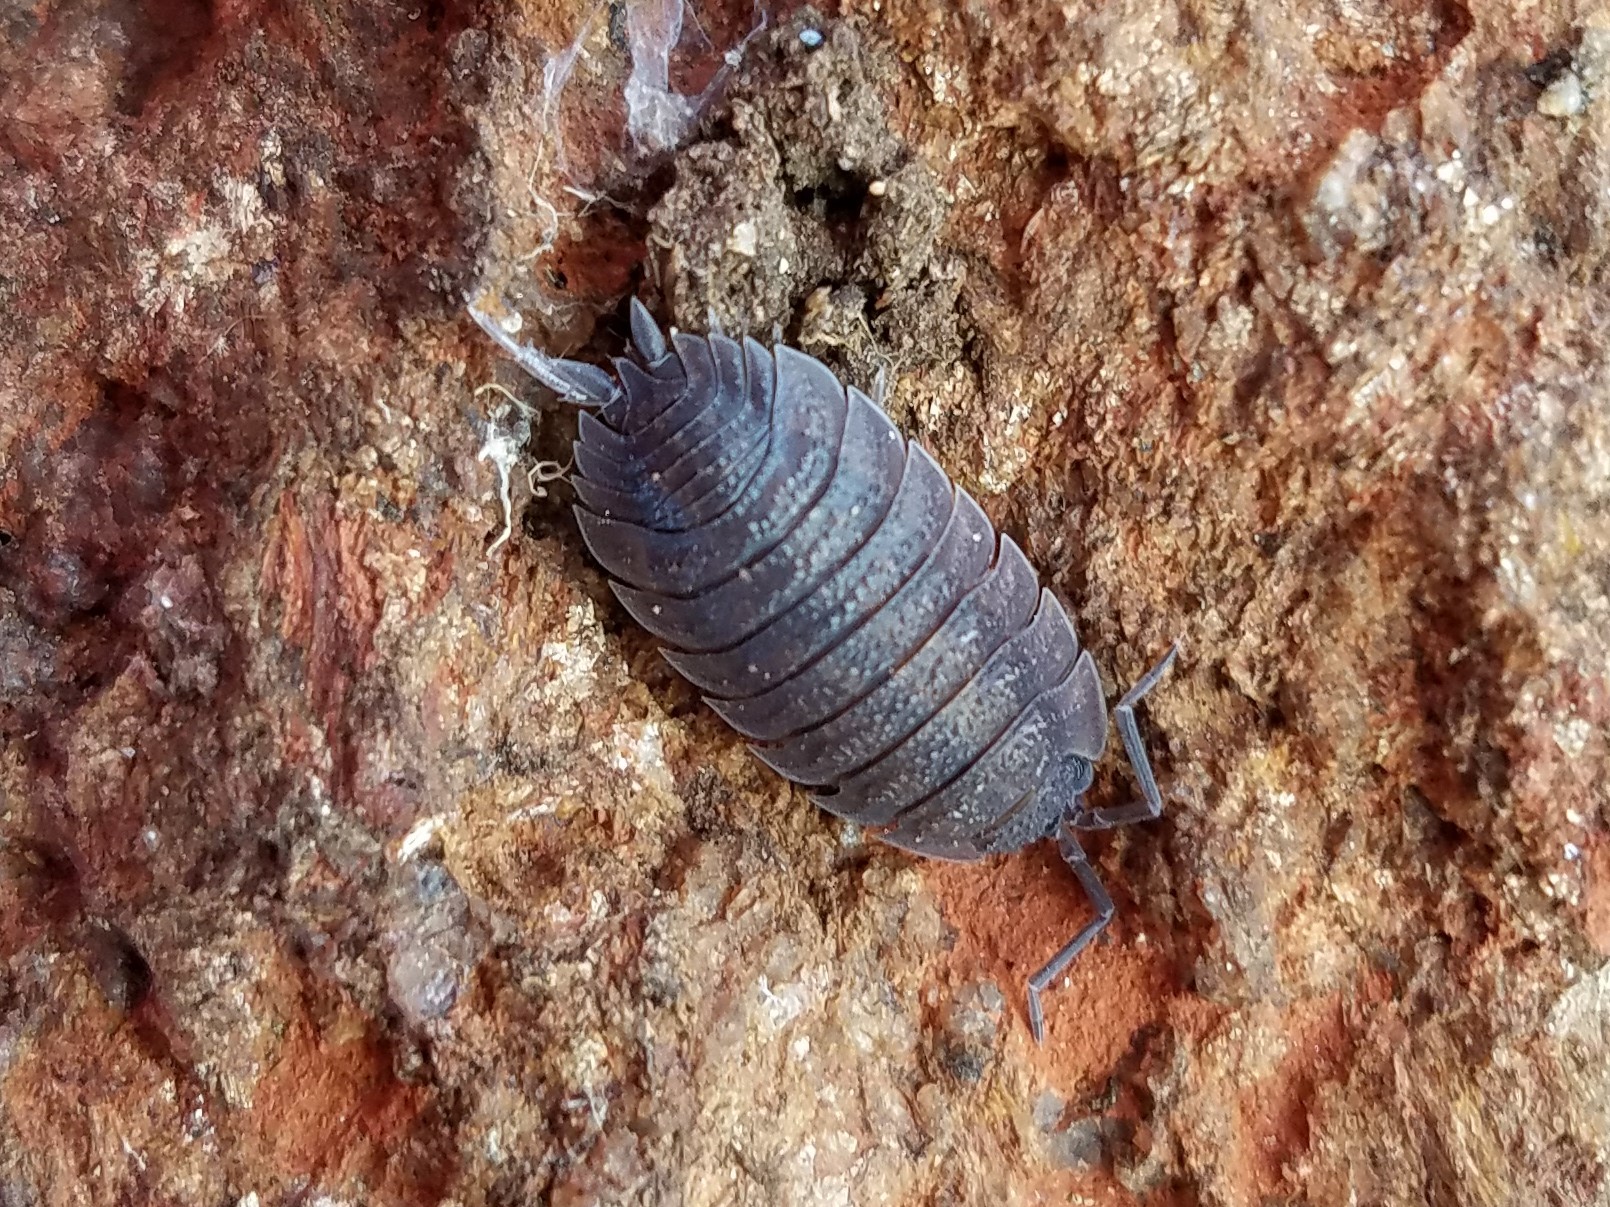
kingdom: Animalia
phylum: Arthropoda
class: Malacostraca
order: Isopoda
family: Porcellionidae
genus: Porcellio
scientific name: Porcellio scaber
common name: Common rough woodlouse
